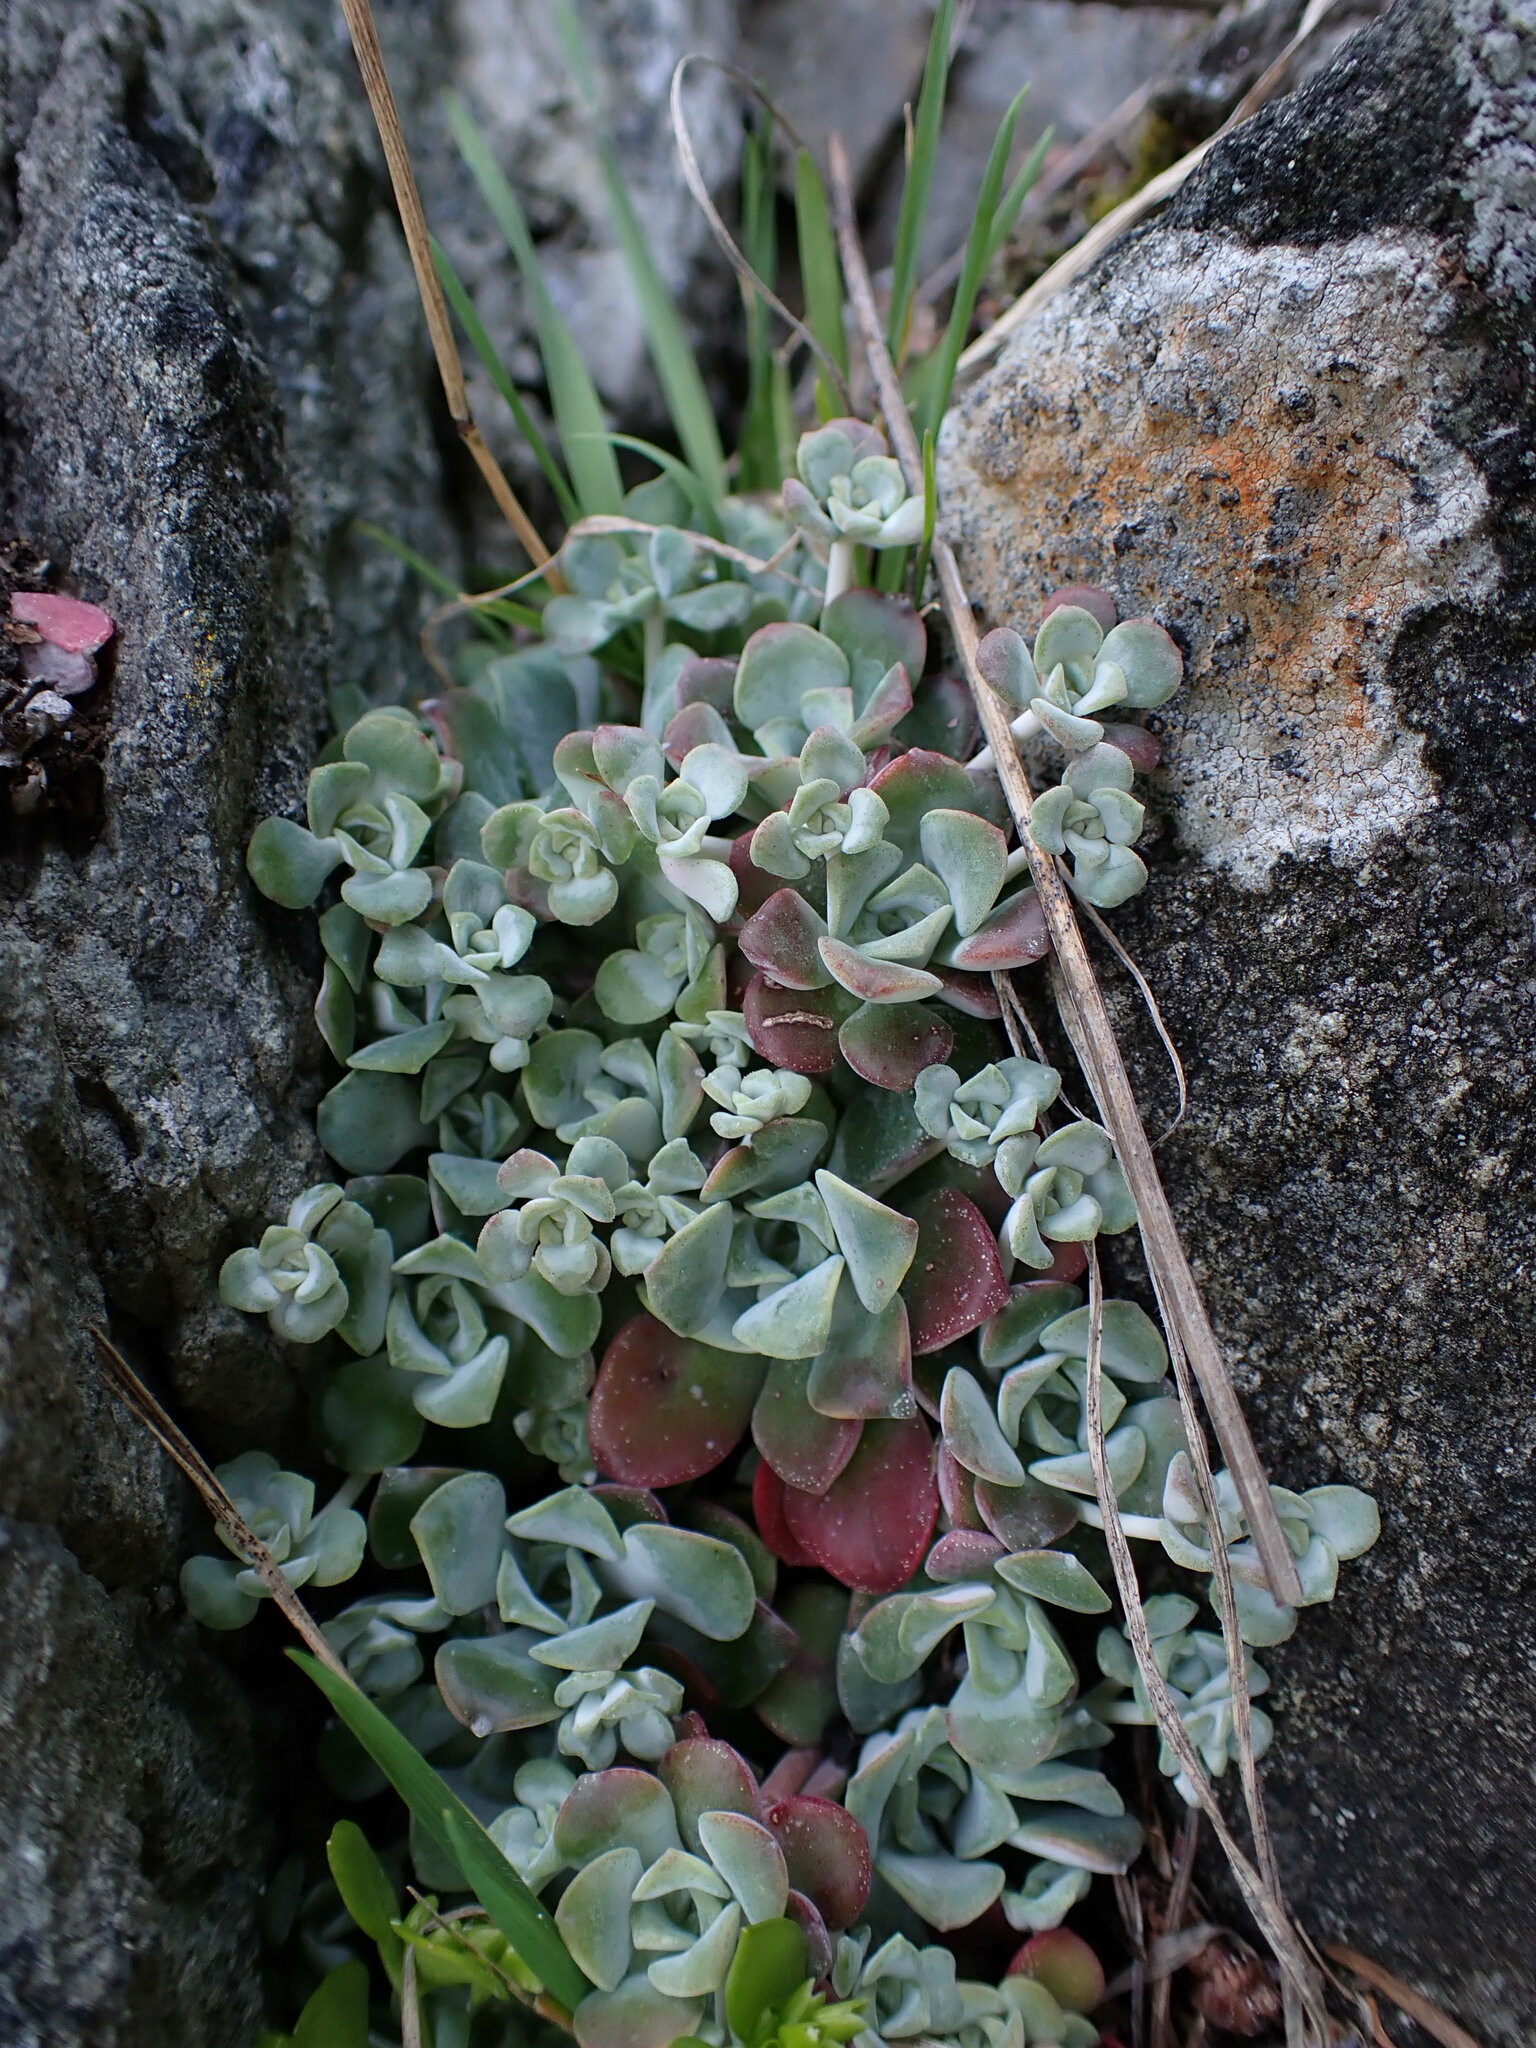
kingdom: Plantae
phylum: Tracheophyta
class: Magnoliopsida
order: Saxifragales
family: Crassulaceae
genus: Sedum
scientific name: Sedum spathulifolium
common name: Colorado stonecrop
